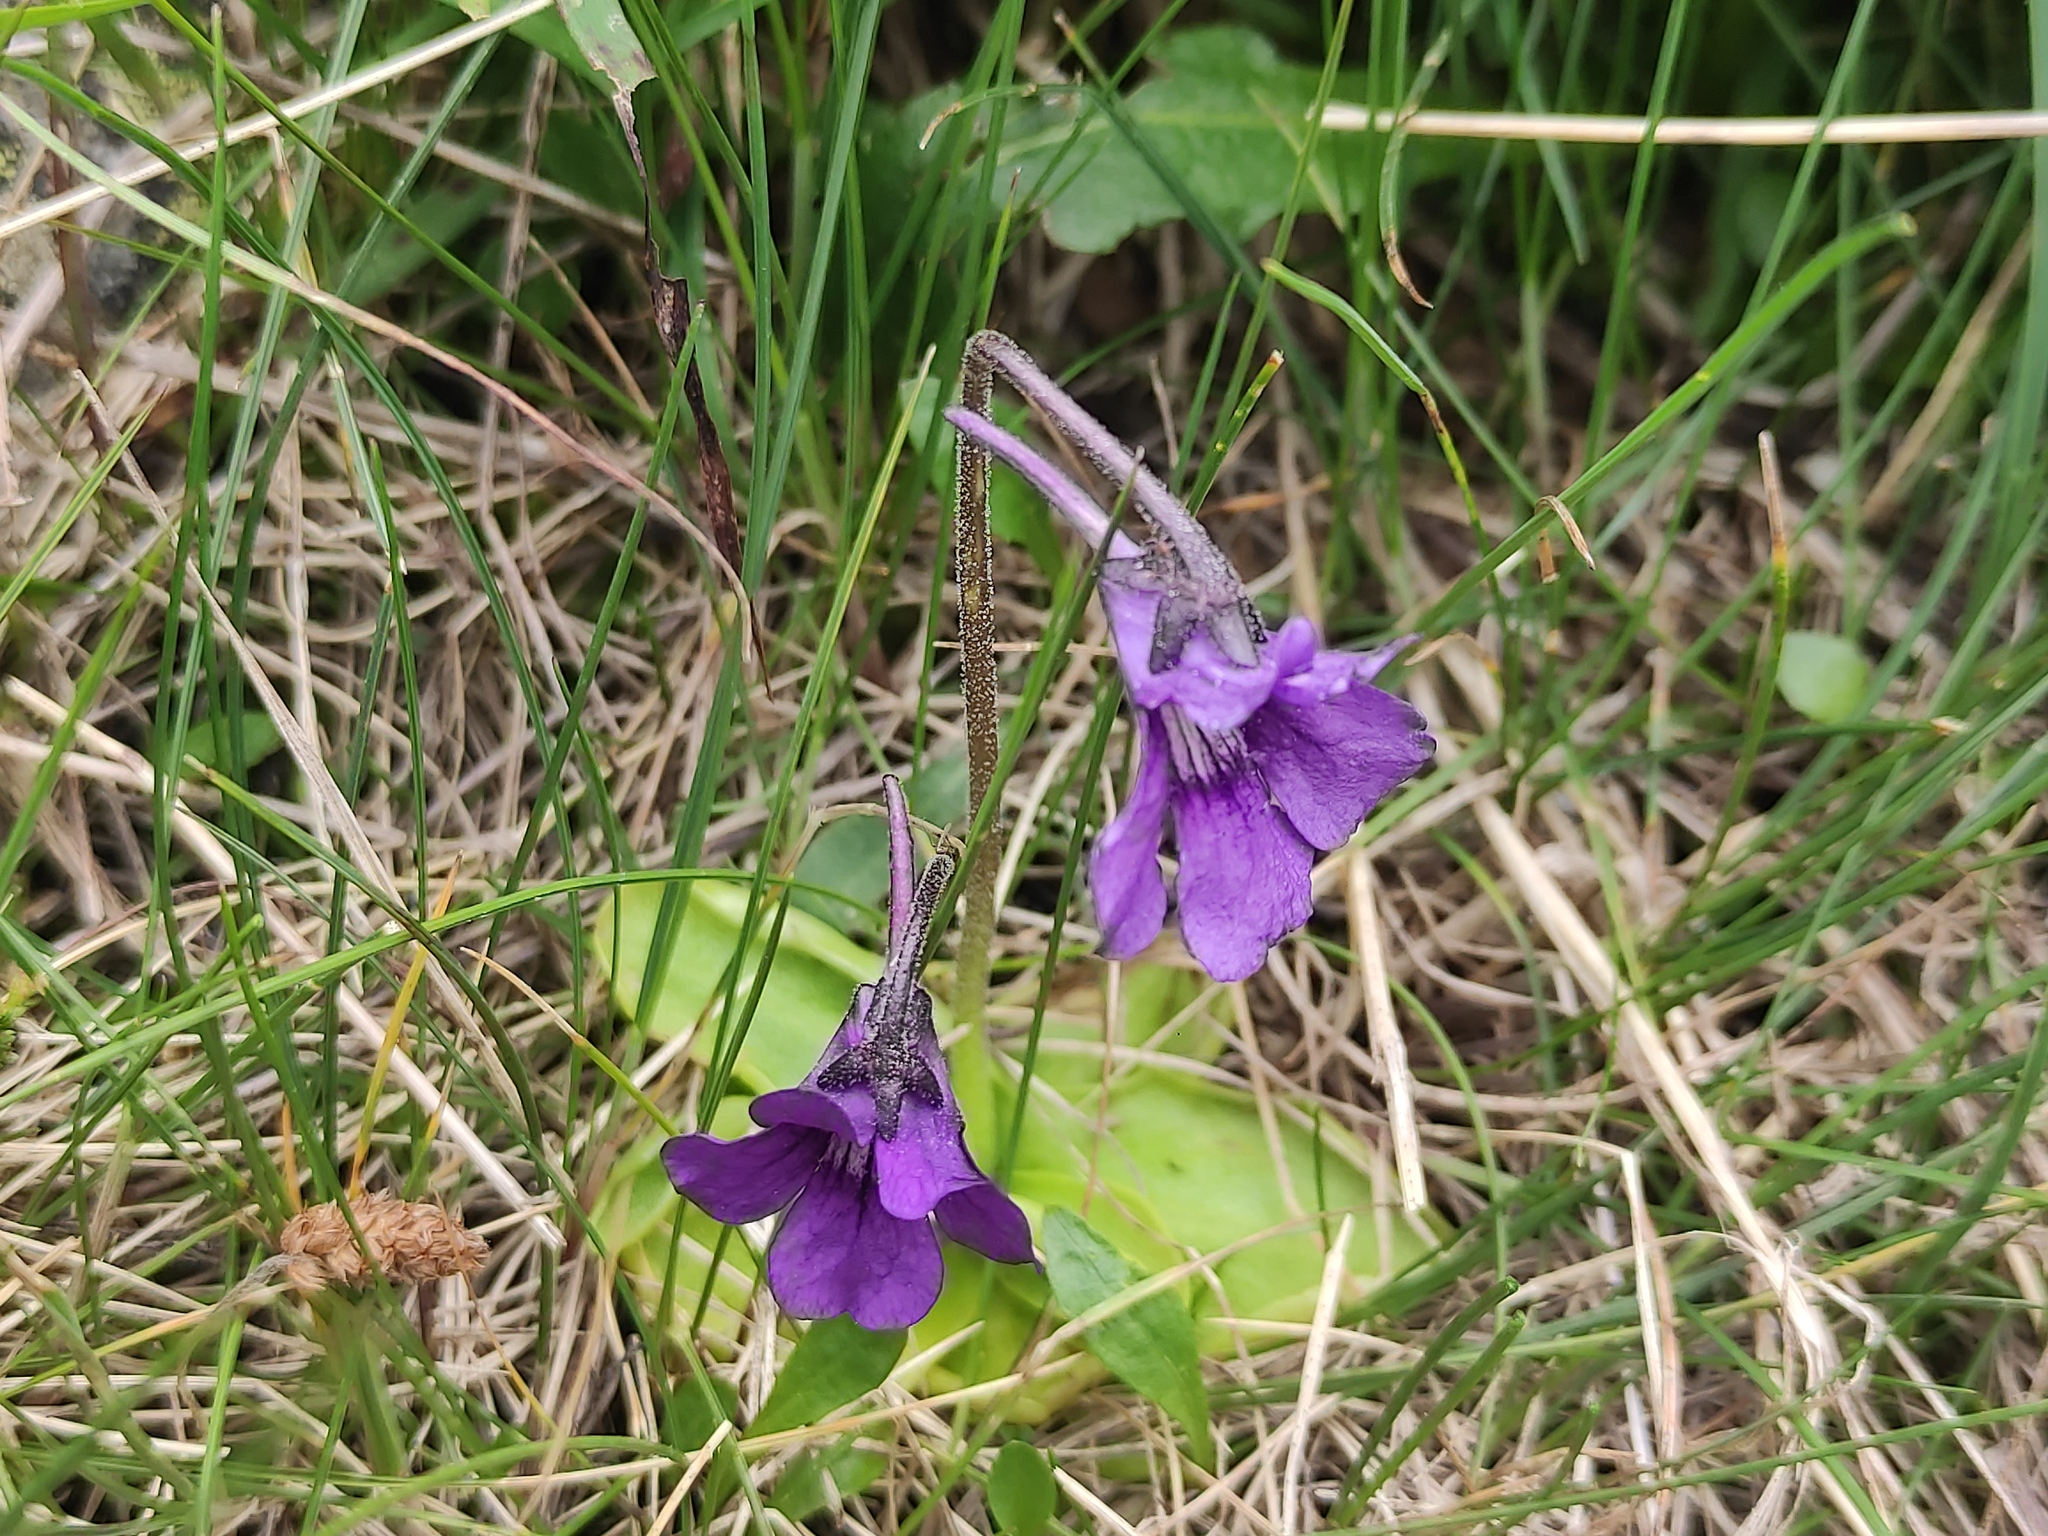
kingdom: Plantae
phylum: Tracheophyta
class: Magnoliopsida
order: Lamiales
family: Lentibulariaceae
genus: Pinguicula
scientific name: Pinguicula grandiflora
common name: Large-flowered butterwort
